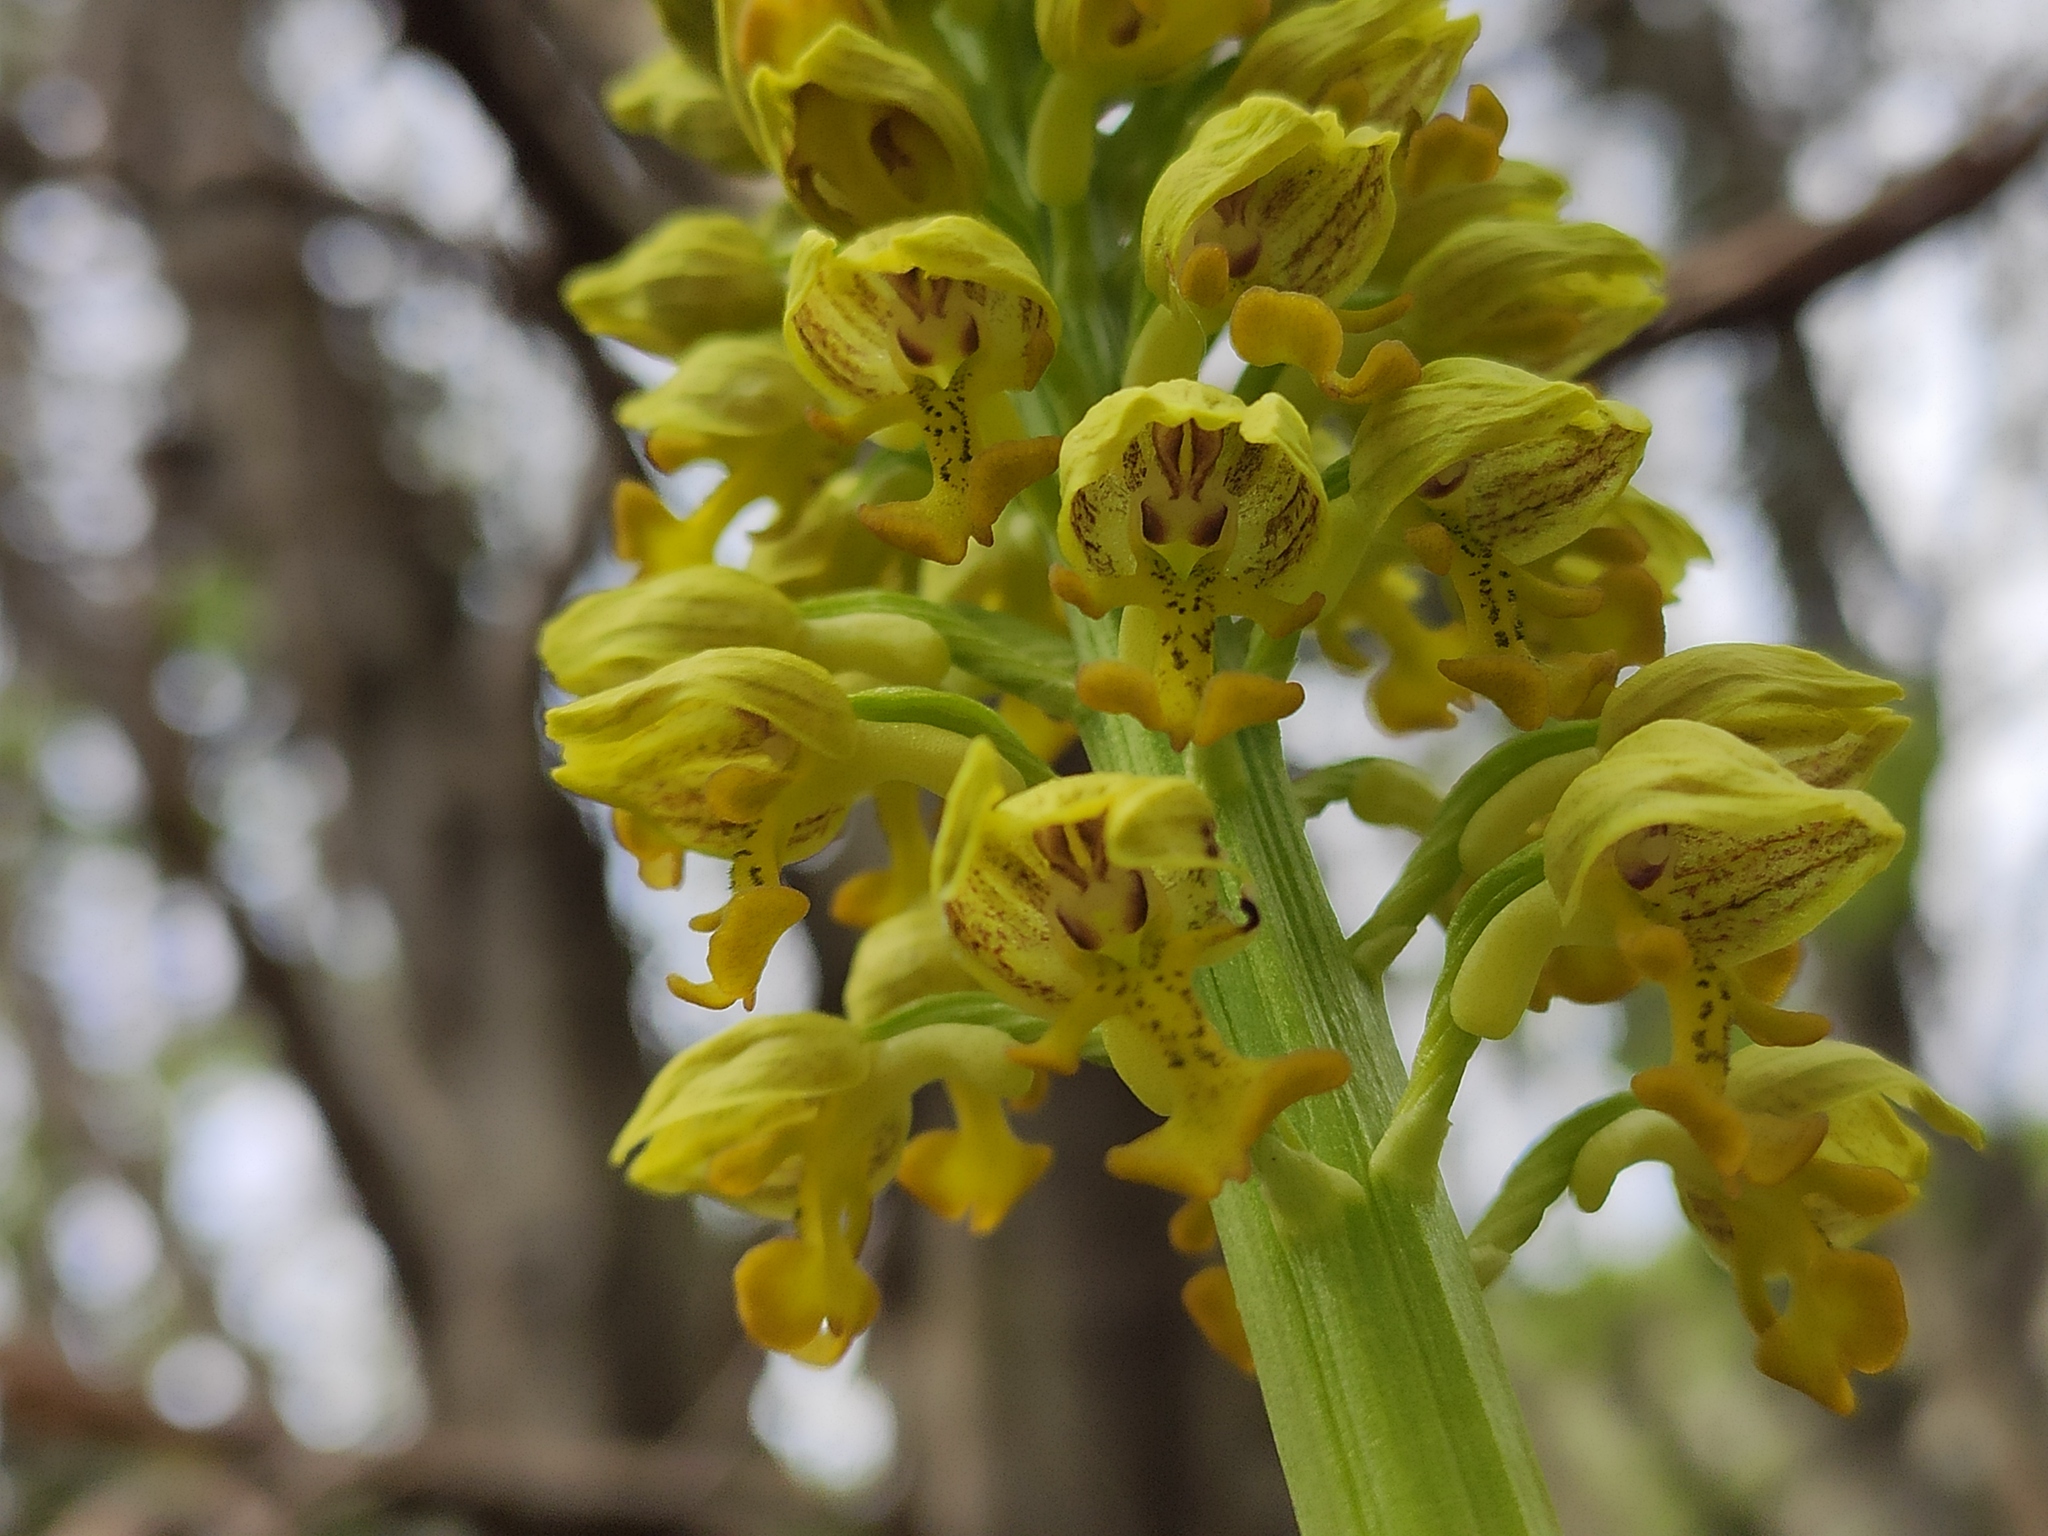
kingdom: Plantae
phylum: Tracheophyta
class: Liliopsida
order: Asparagales
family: Orchidaceae
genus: Orchis
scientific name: Orchis punctulata
